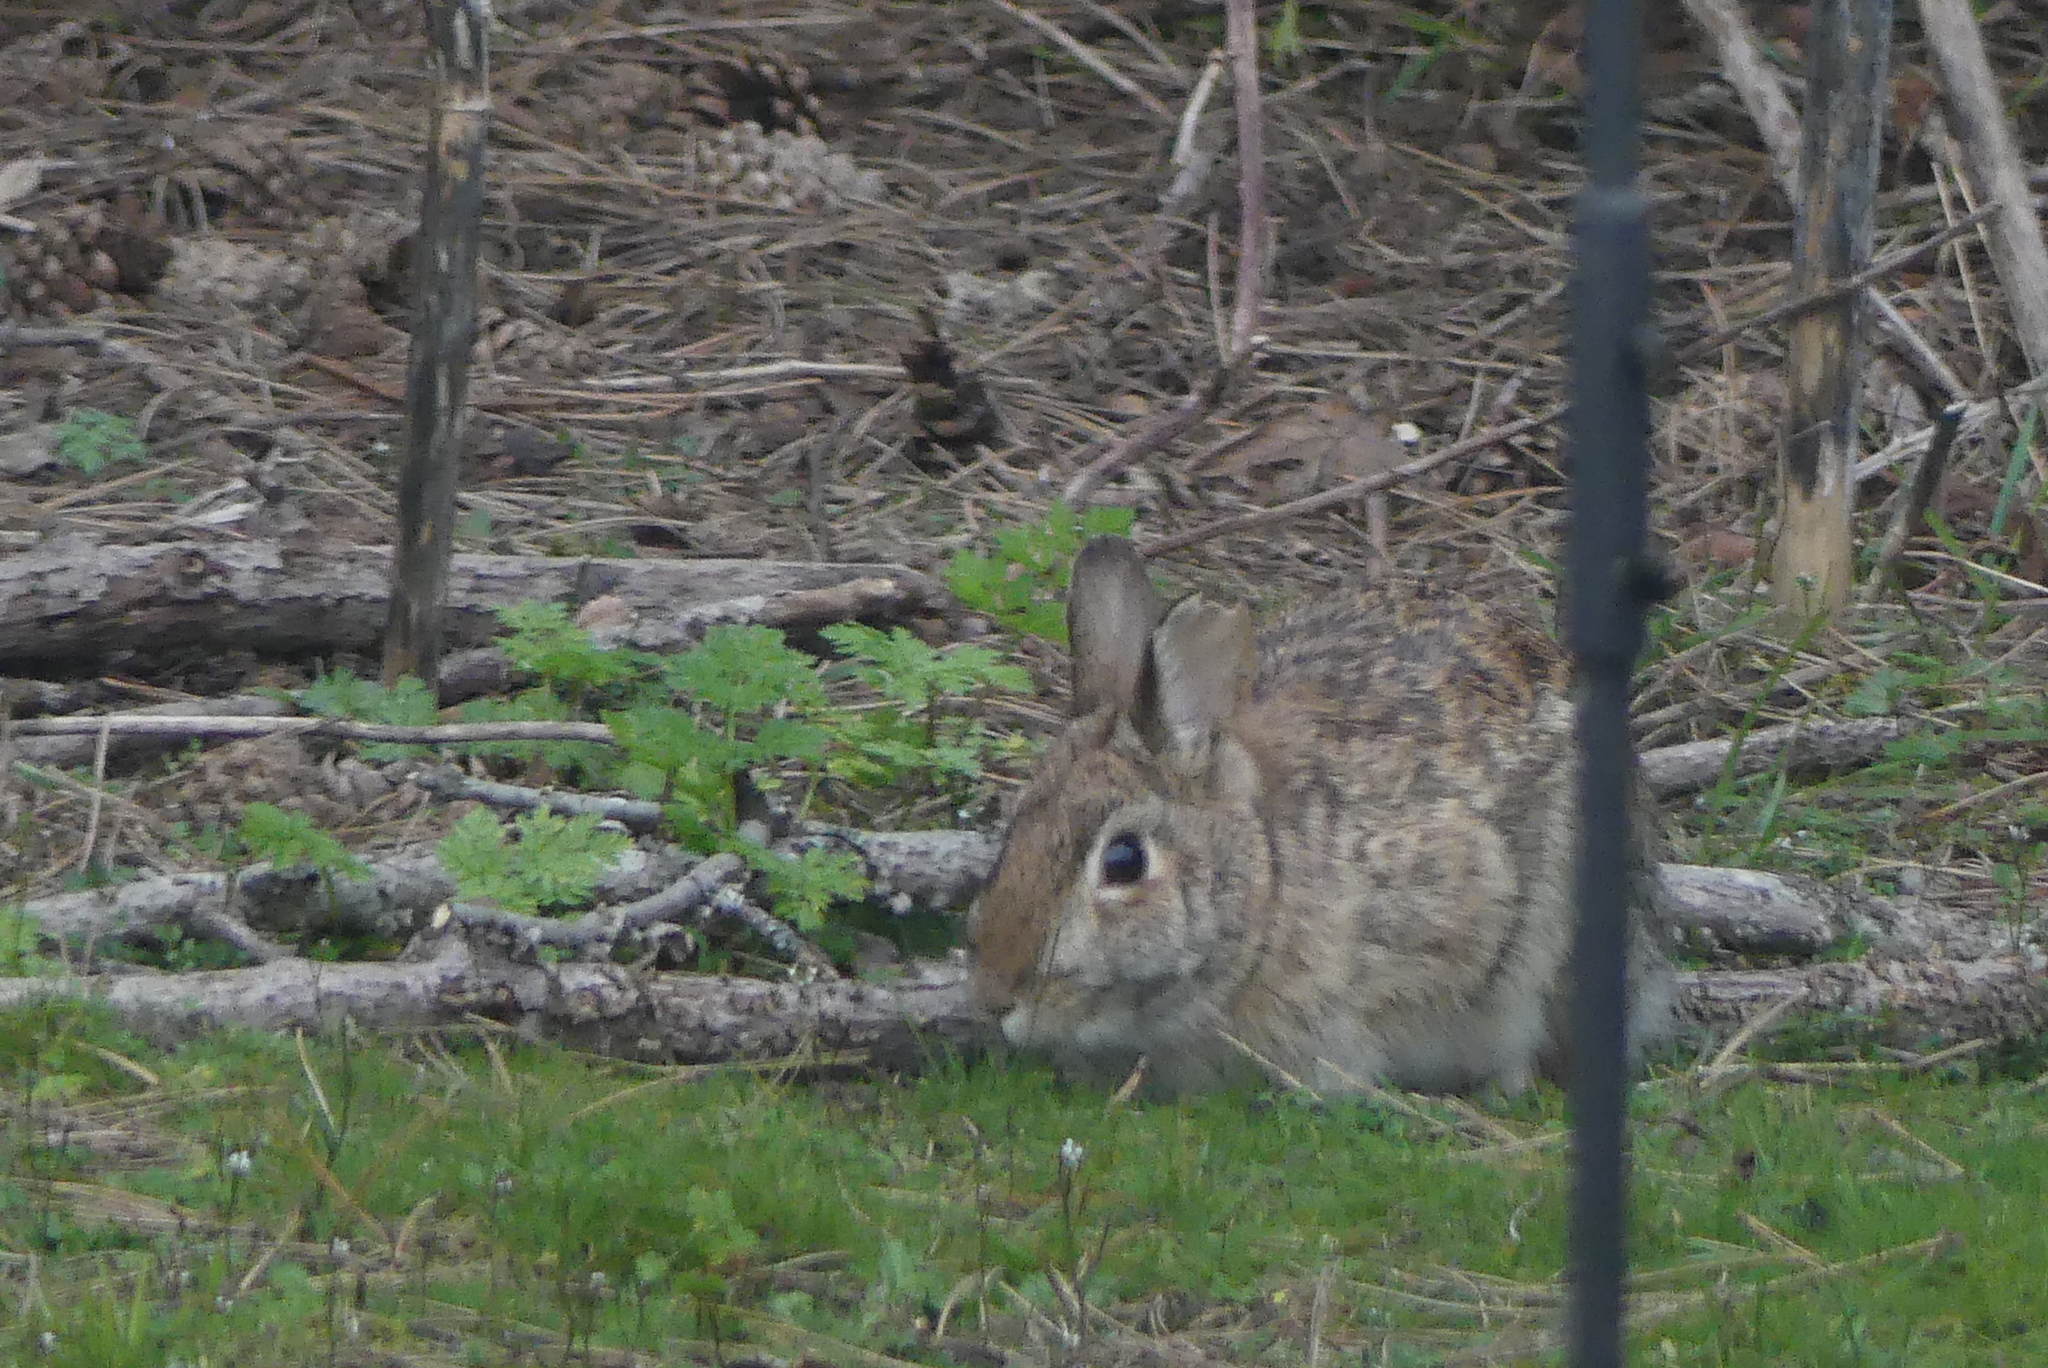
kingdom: Animalia
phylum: Chordata
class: Mammalia
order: Lagomorpha
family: Leporidae
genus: Sylvilagus
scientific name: Sylvilagus floridanus
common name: Eastern cottontail
